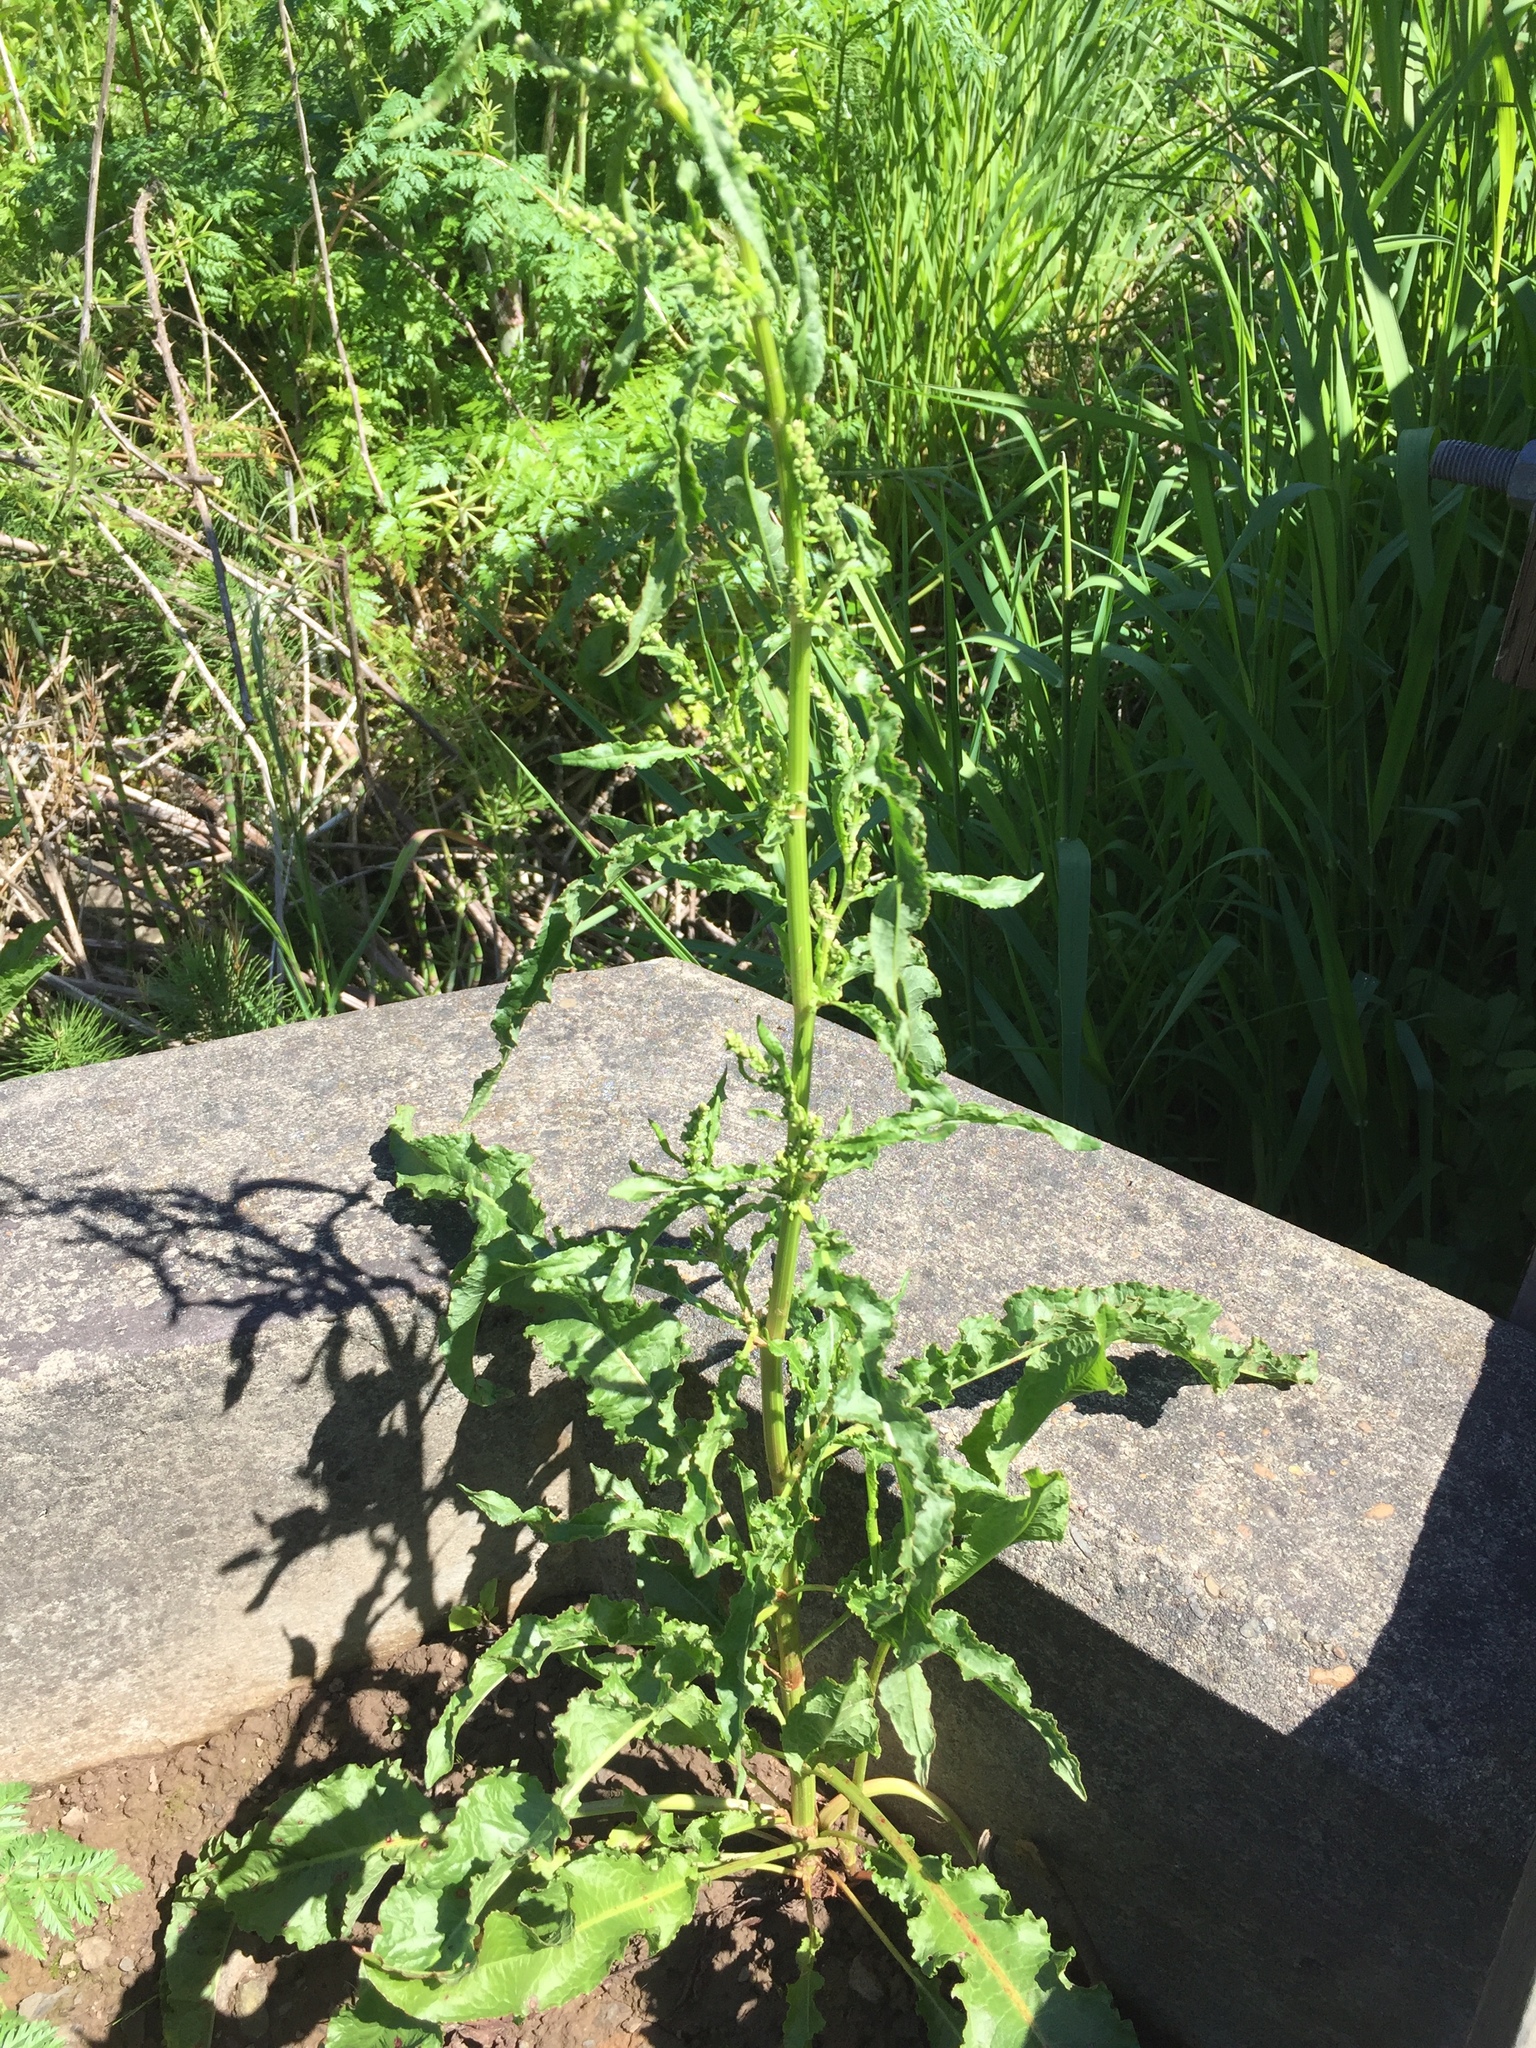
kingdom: Plantae
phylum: Tracheophyta
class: Magnoliopsida
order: Caryophyllales
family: Polygonaceae
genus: Rumex
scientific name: Rumex crispus
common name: Curled dock
